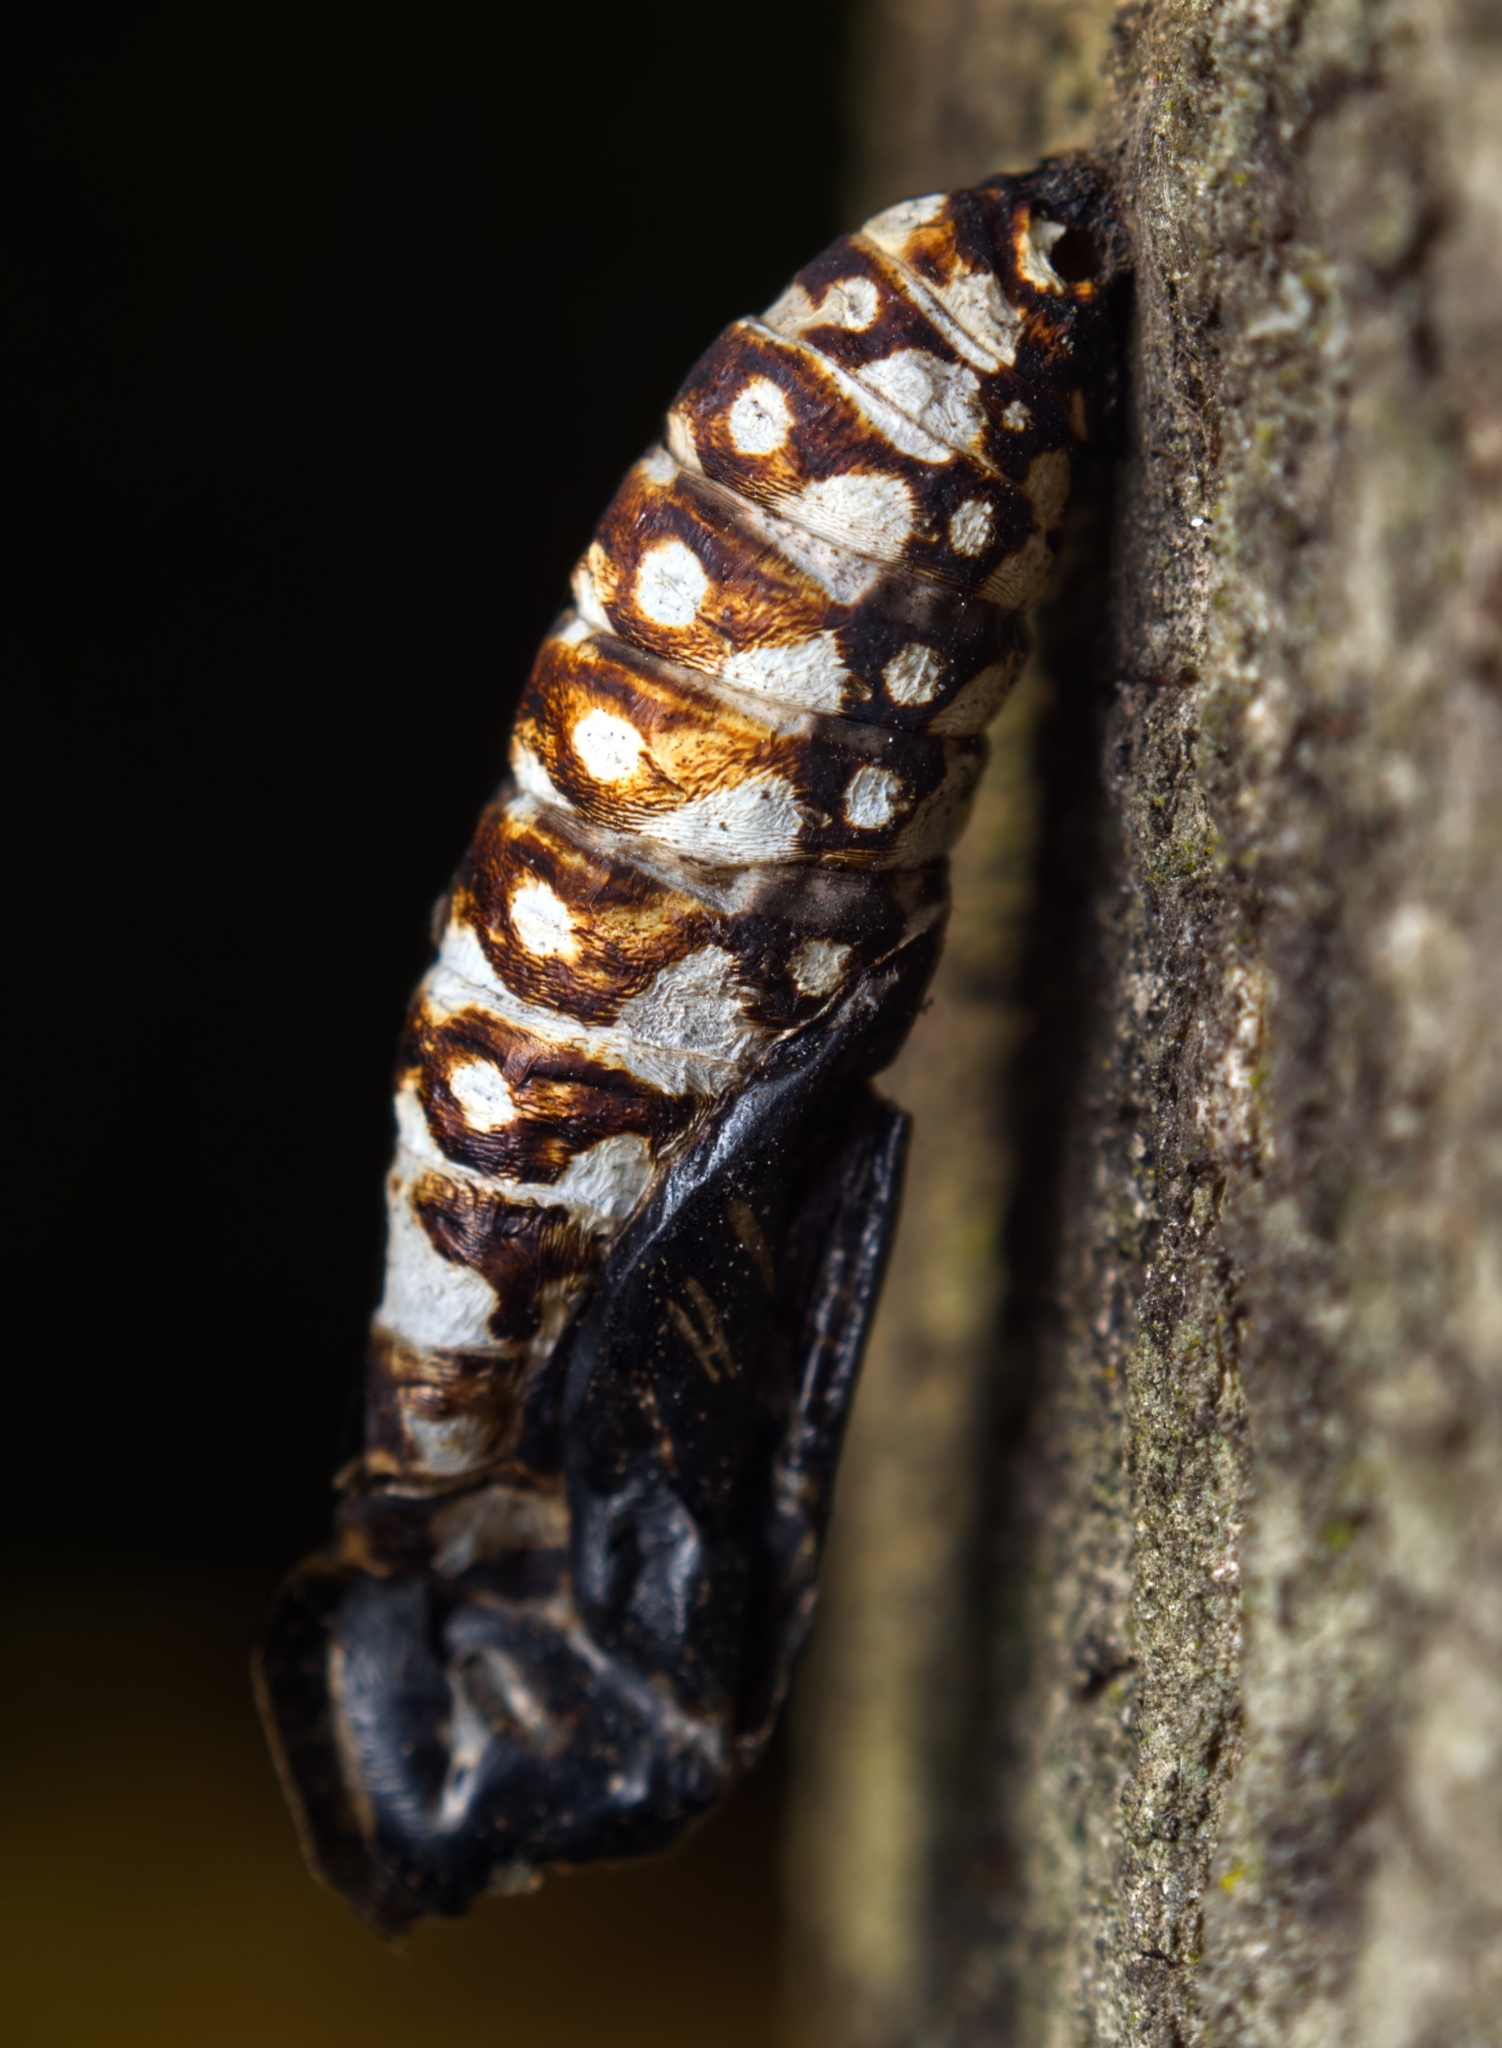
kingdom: Animalia
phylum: Arthropoda
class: Insecta
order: Lepidoptera
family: Nymphalidae
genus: Acraea
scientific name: Acraea horta
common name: Garden acraea
